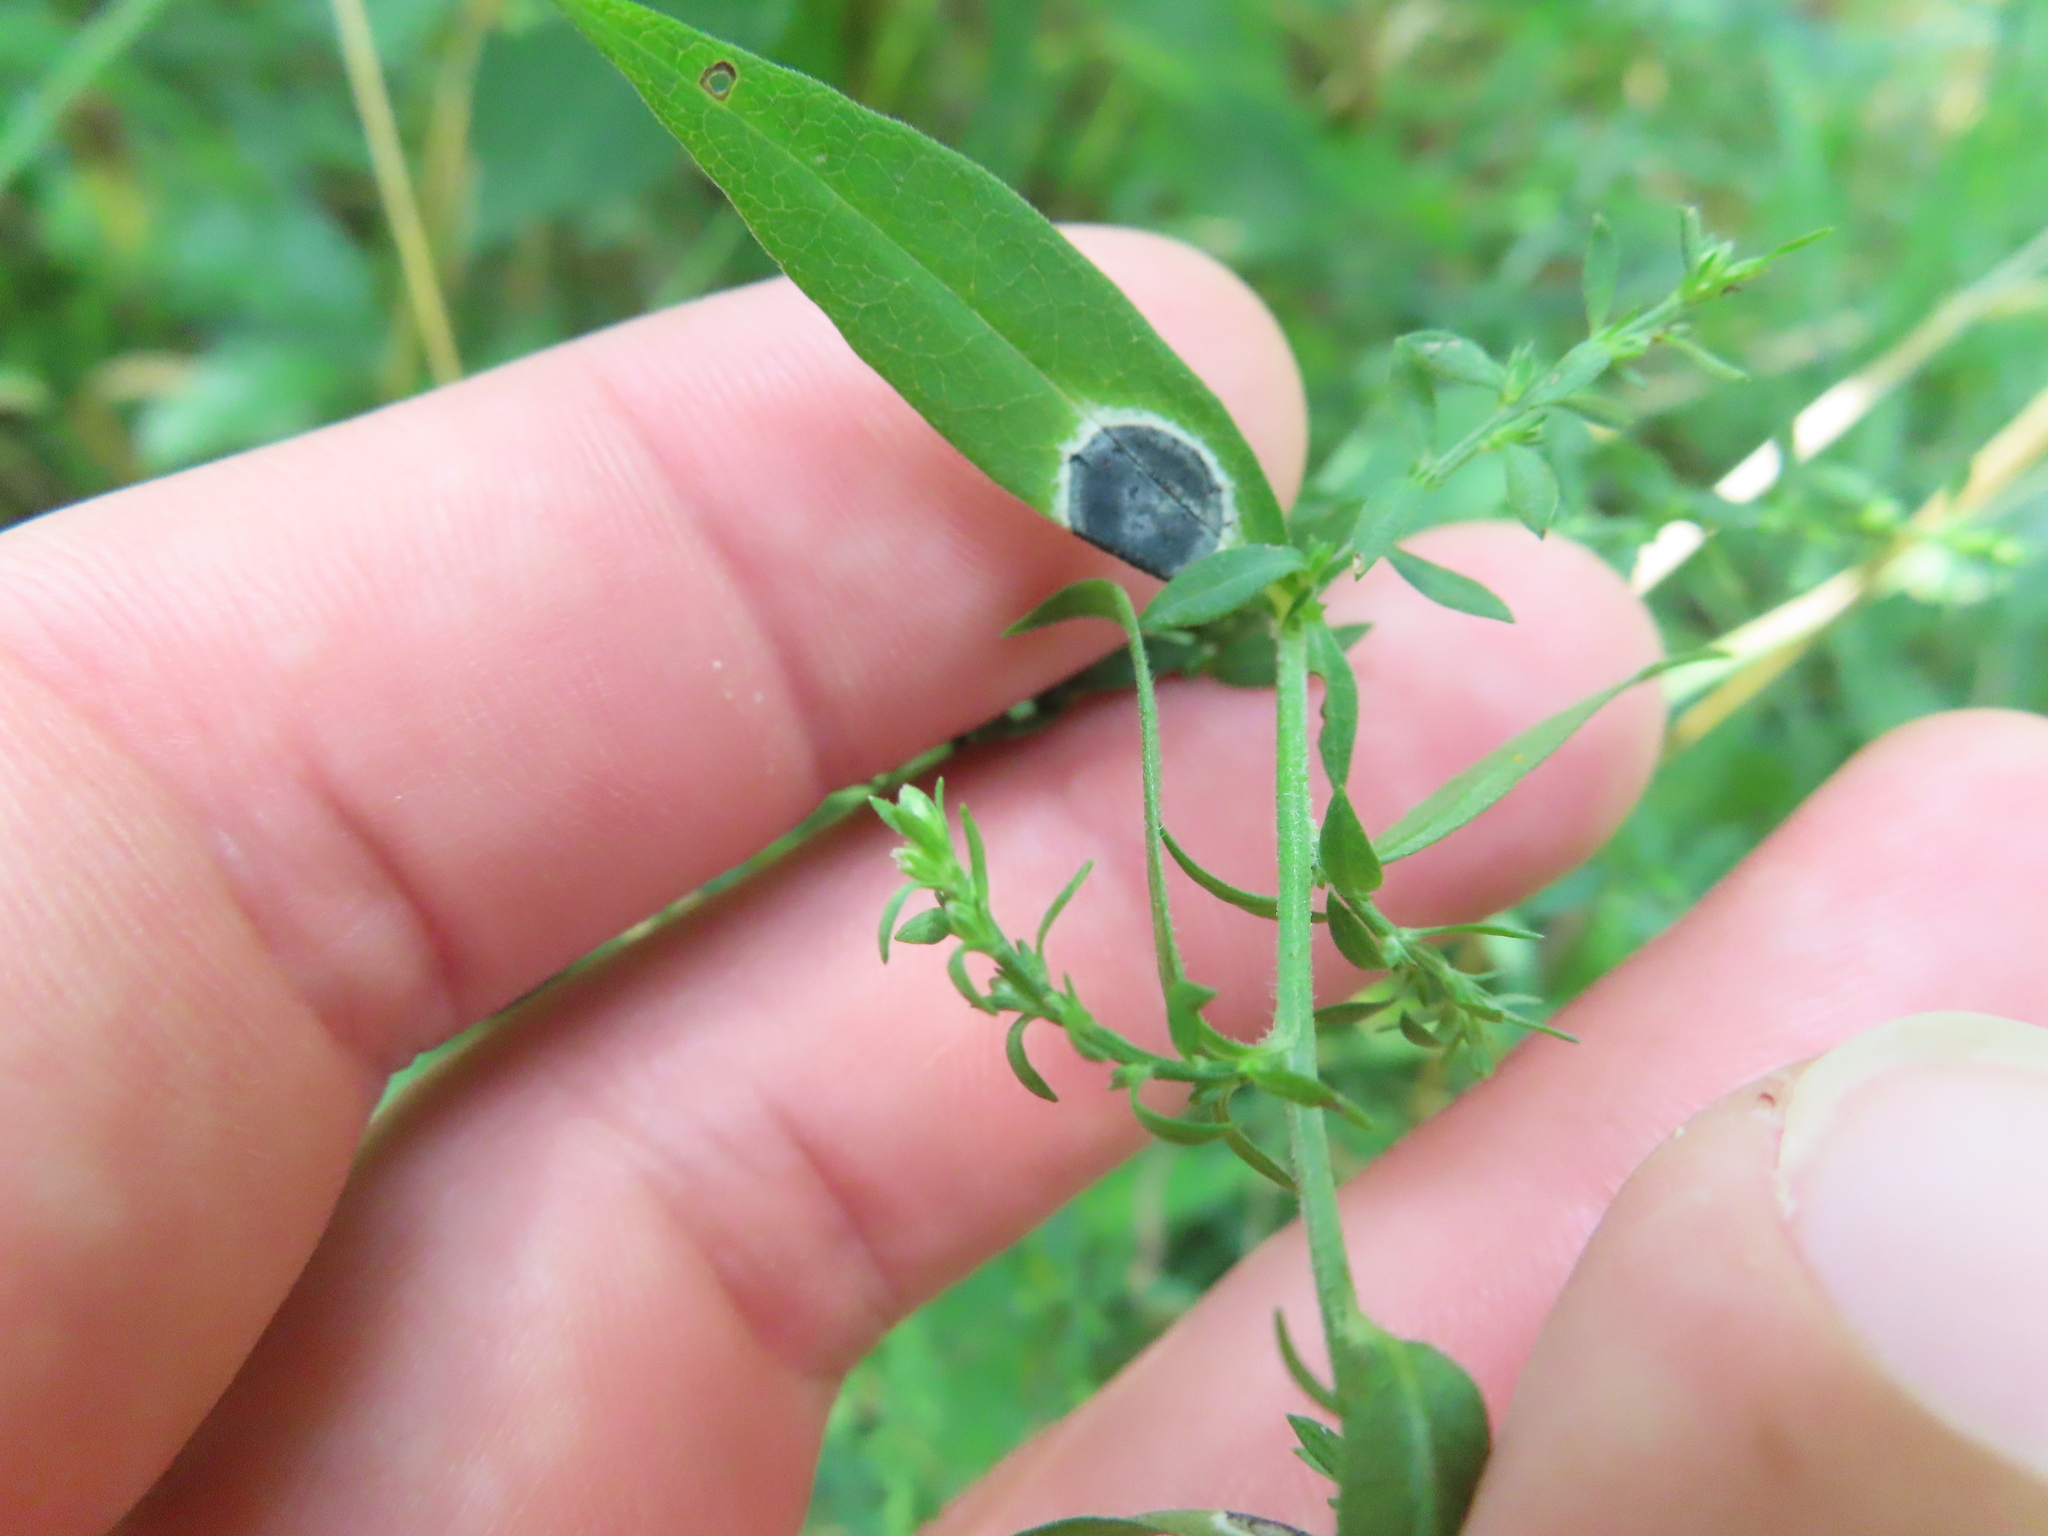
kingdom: Animalia
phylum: Arthropoda
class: Insecta
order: Diptera
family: Cecidomyiidae
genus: Asteromyia
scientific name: Asteromyia carbonifera
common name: Carbonifera goldenrod gall midge
